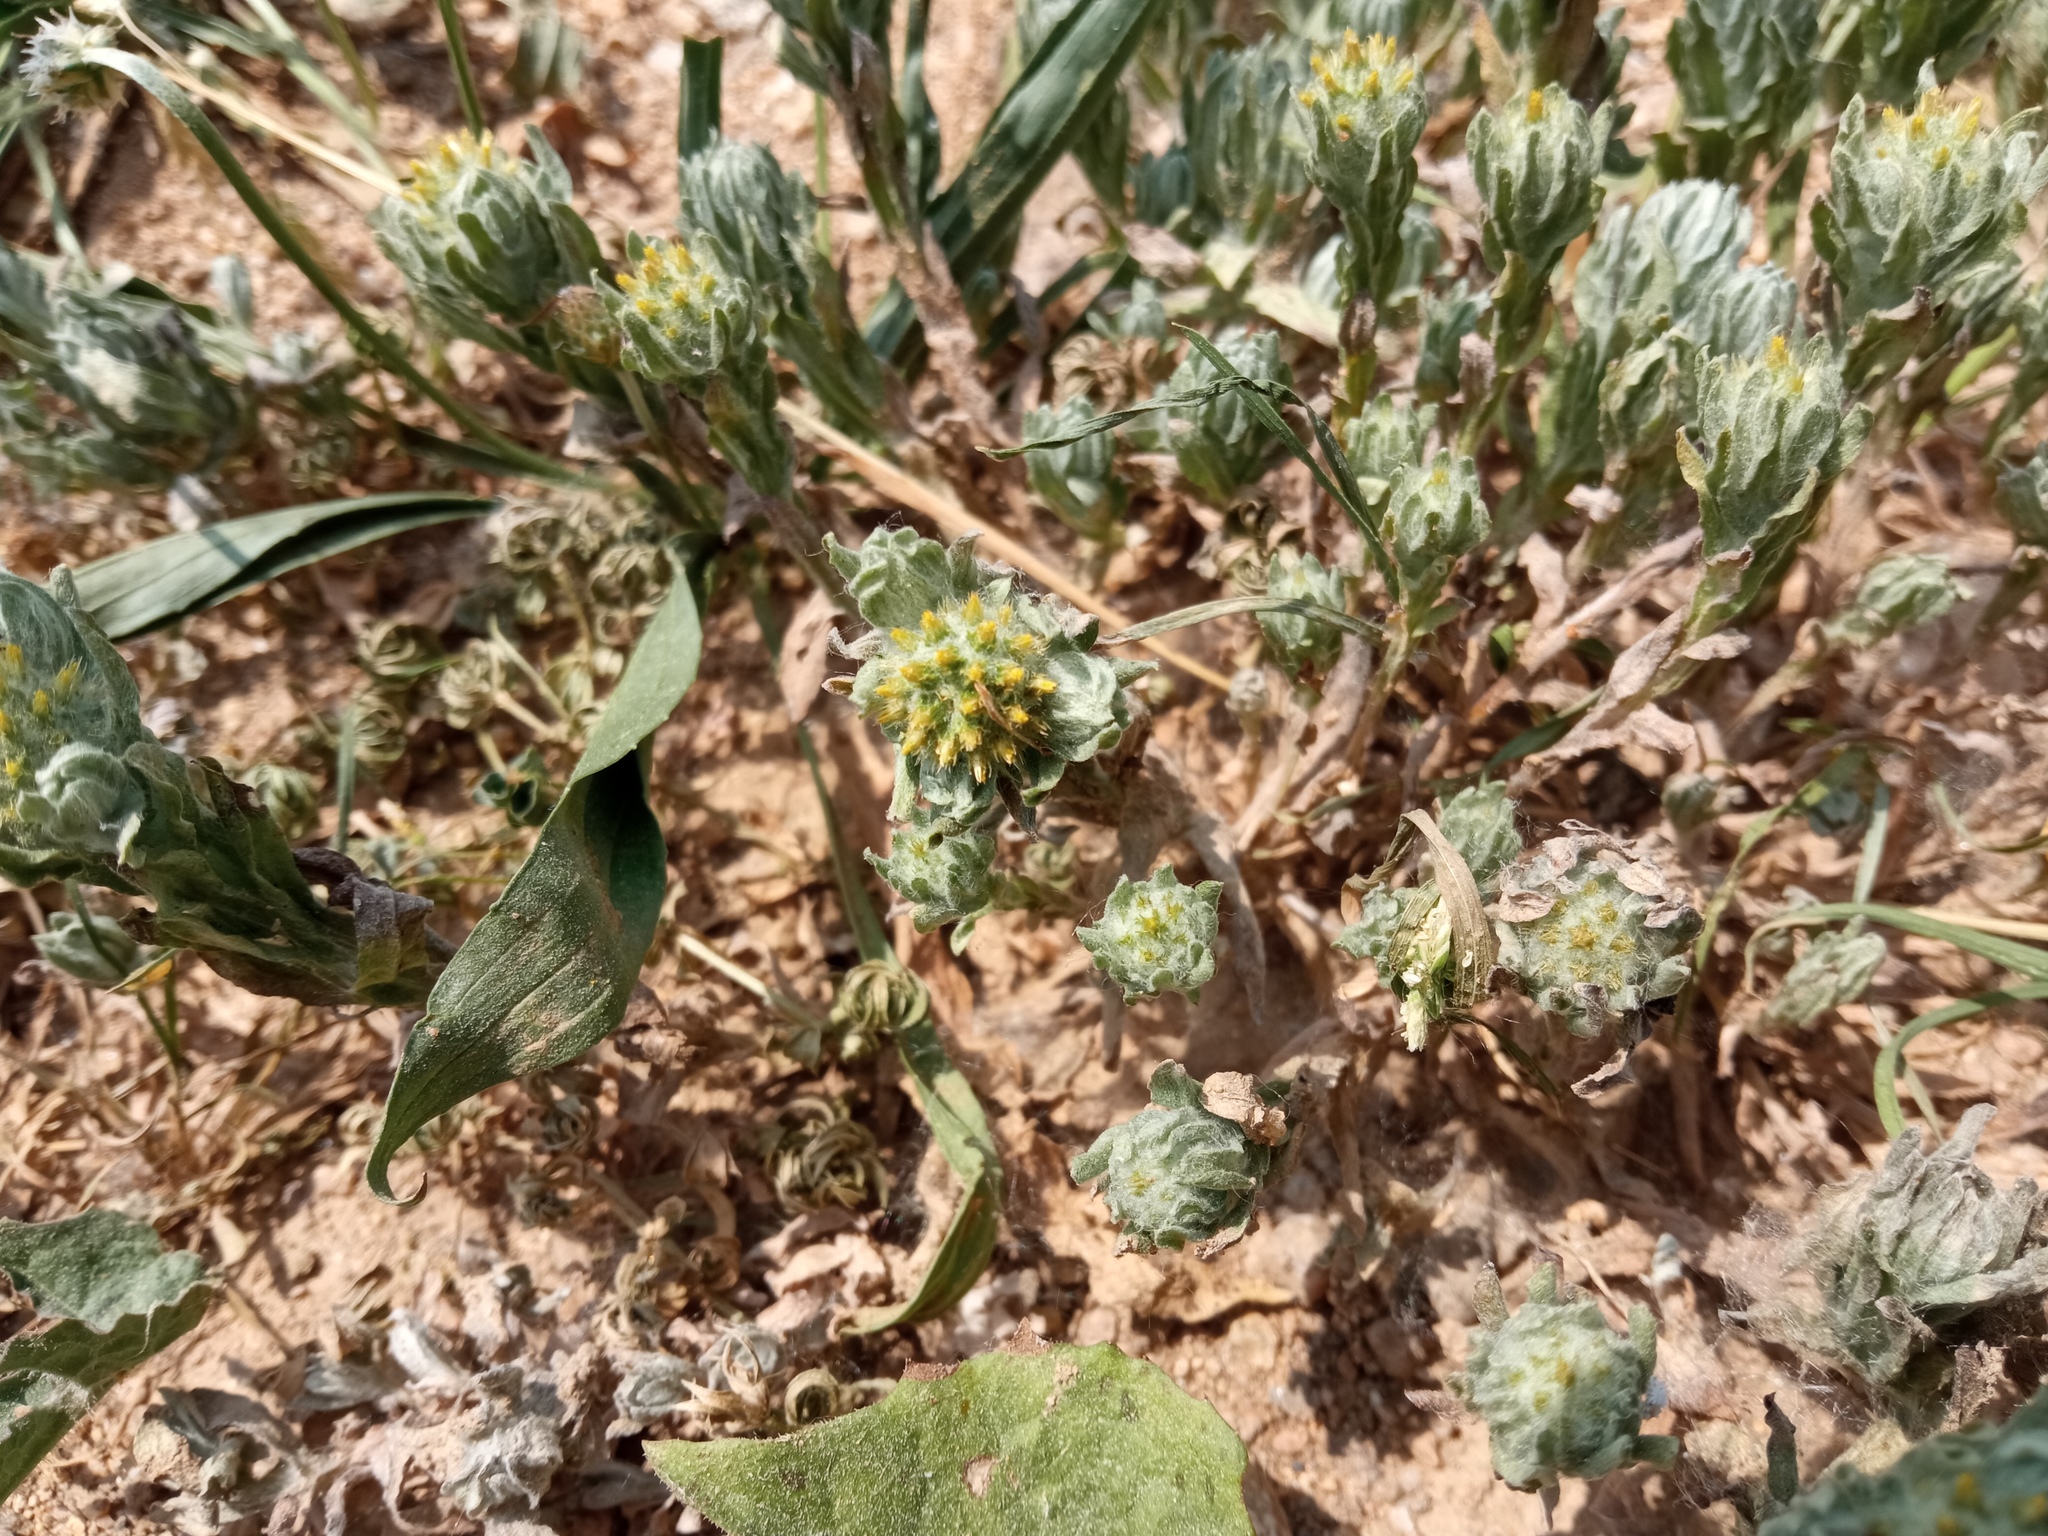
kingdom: Plantae
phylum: Tracheophyta
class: Magnoliopsida
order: Asterales
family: Asteraceae
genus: Filago
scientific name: Filago pyramidata
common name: Broad-leaved cudweed
